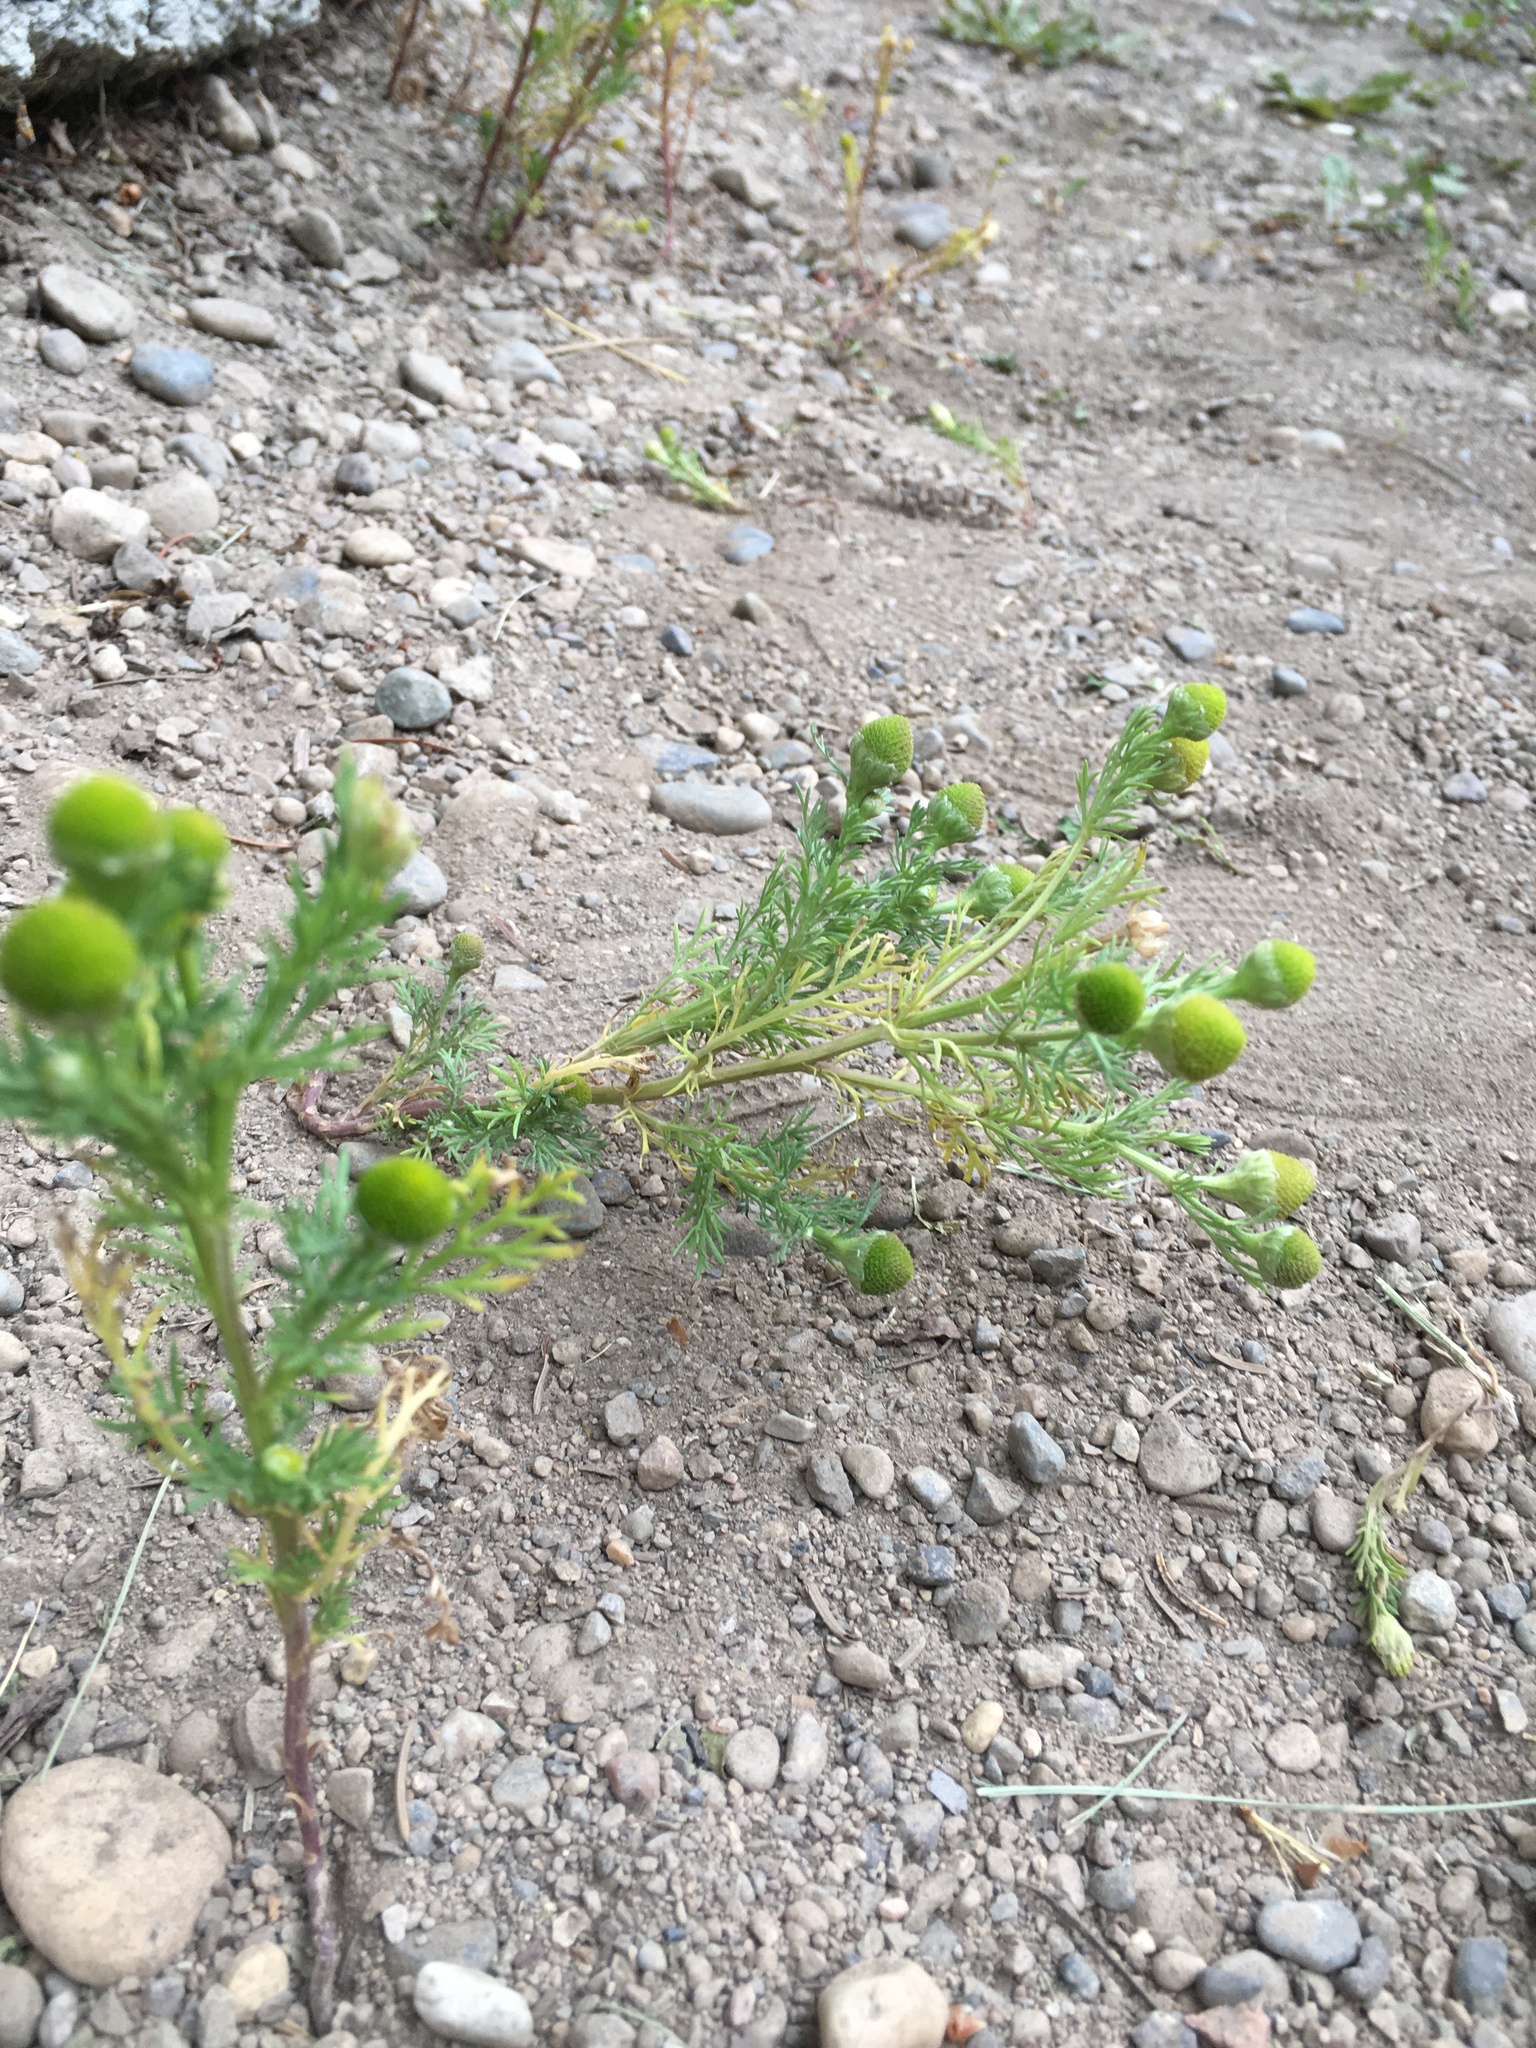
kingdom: Plantae
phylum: Tracheophyta
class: Magnoliopsida
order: Asterales
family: Asteraceae
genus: Matricaria
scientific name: Matricaria discoidea
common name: Disc mayweed
